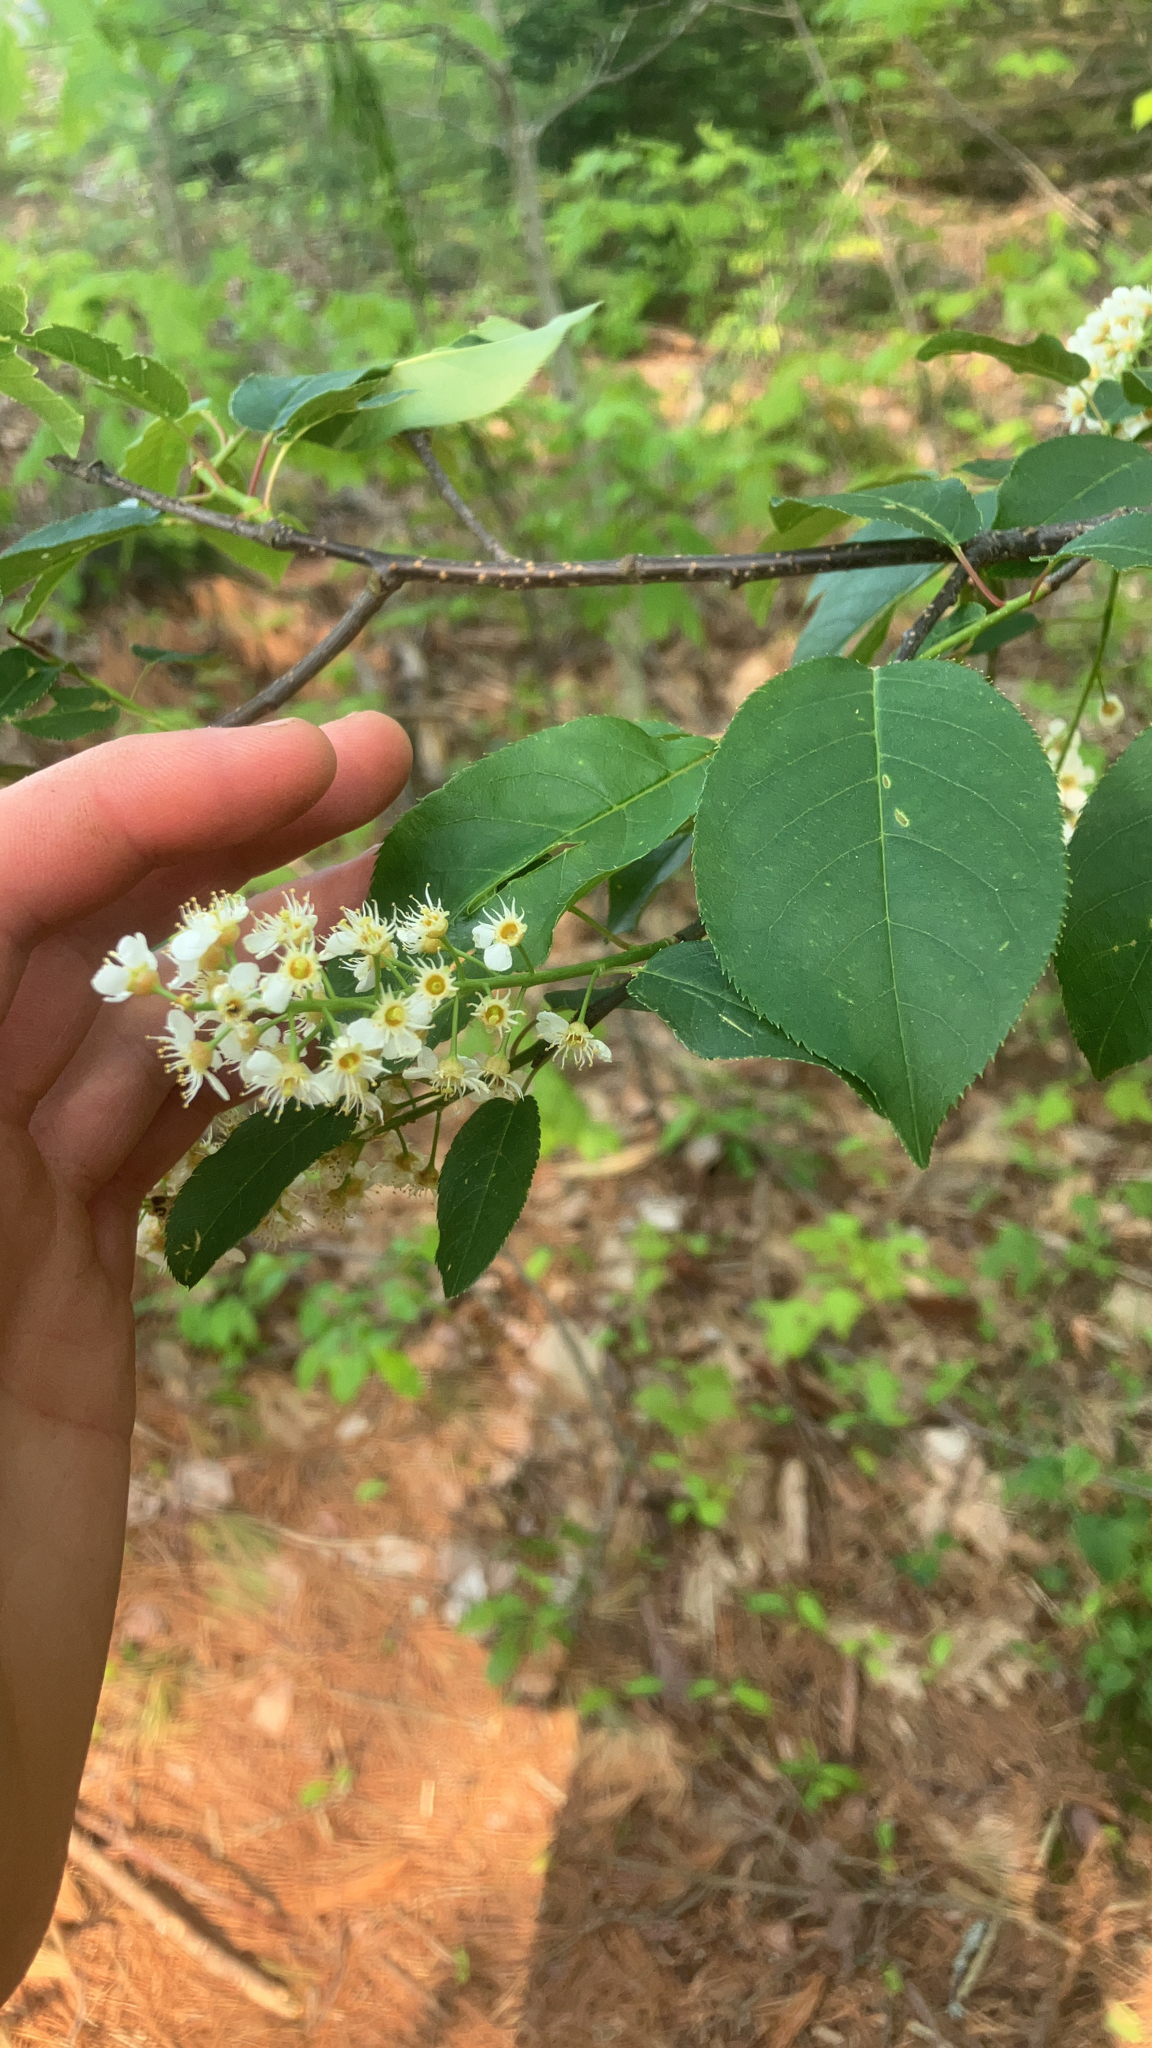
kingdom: Plantae
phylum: Tracheophyta
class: Magnoliopsida
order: Rosales
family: Rosaceae
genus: Prunus
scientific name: Prunus virginiana
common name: Chokecherry
